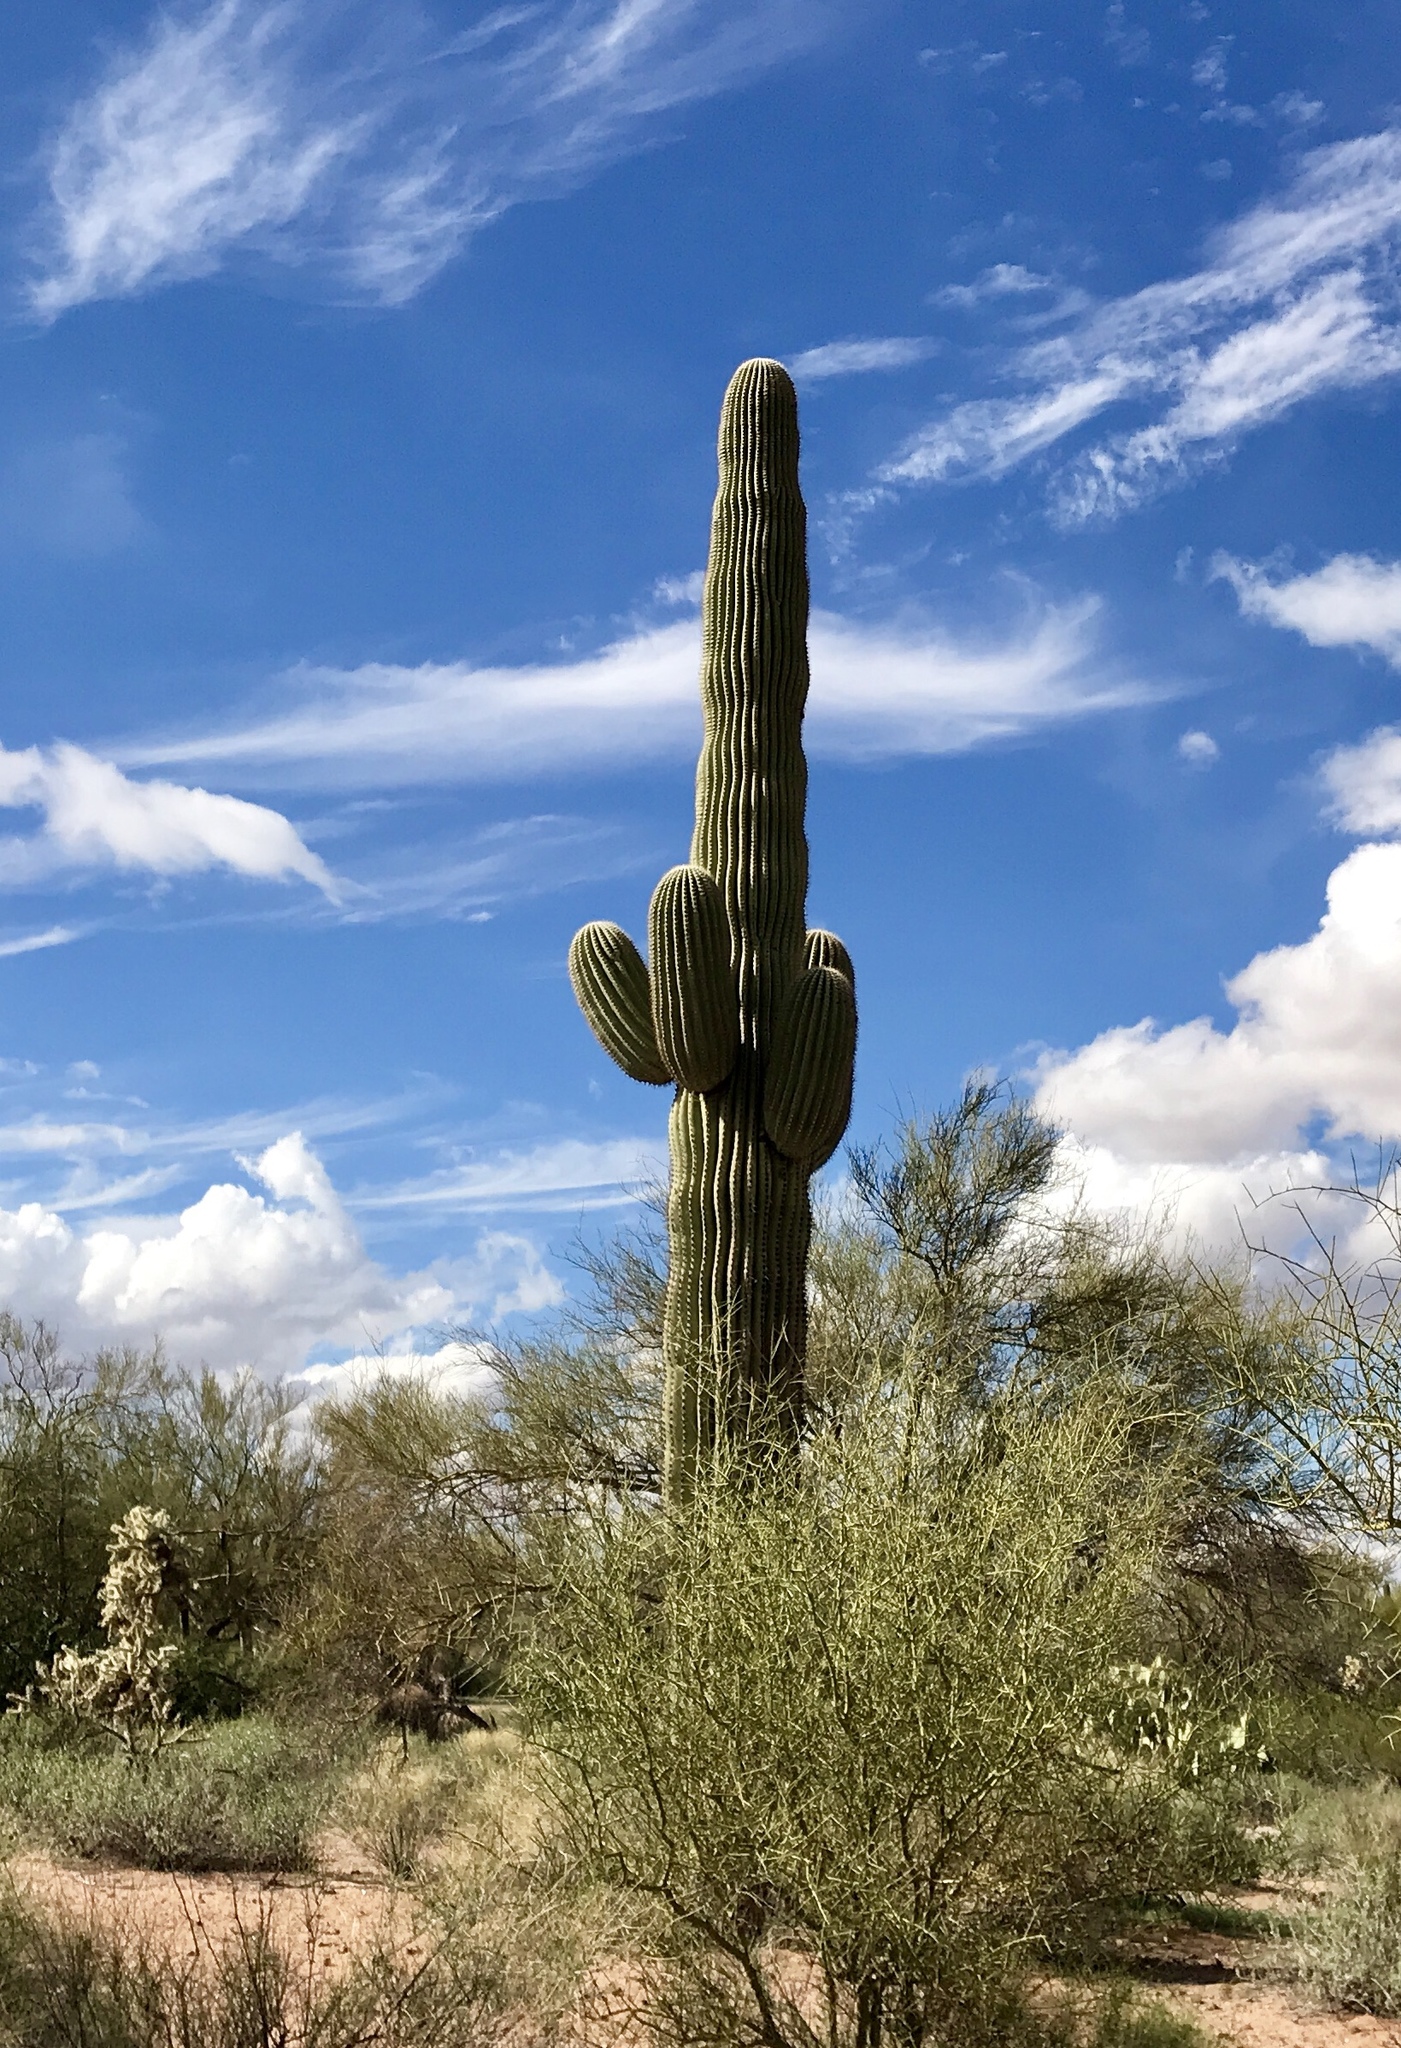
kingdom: Plantae
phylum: Tracheophyta
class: Magnoliopsida
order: Caryophyllales
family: Cactaceae
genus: Carnegiea
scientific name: Carnegiea gigantea
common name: Saguaro
